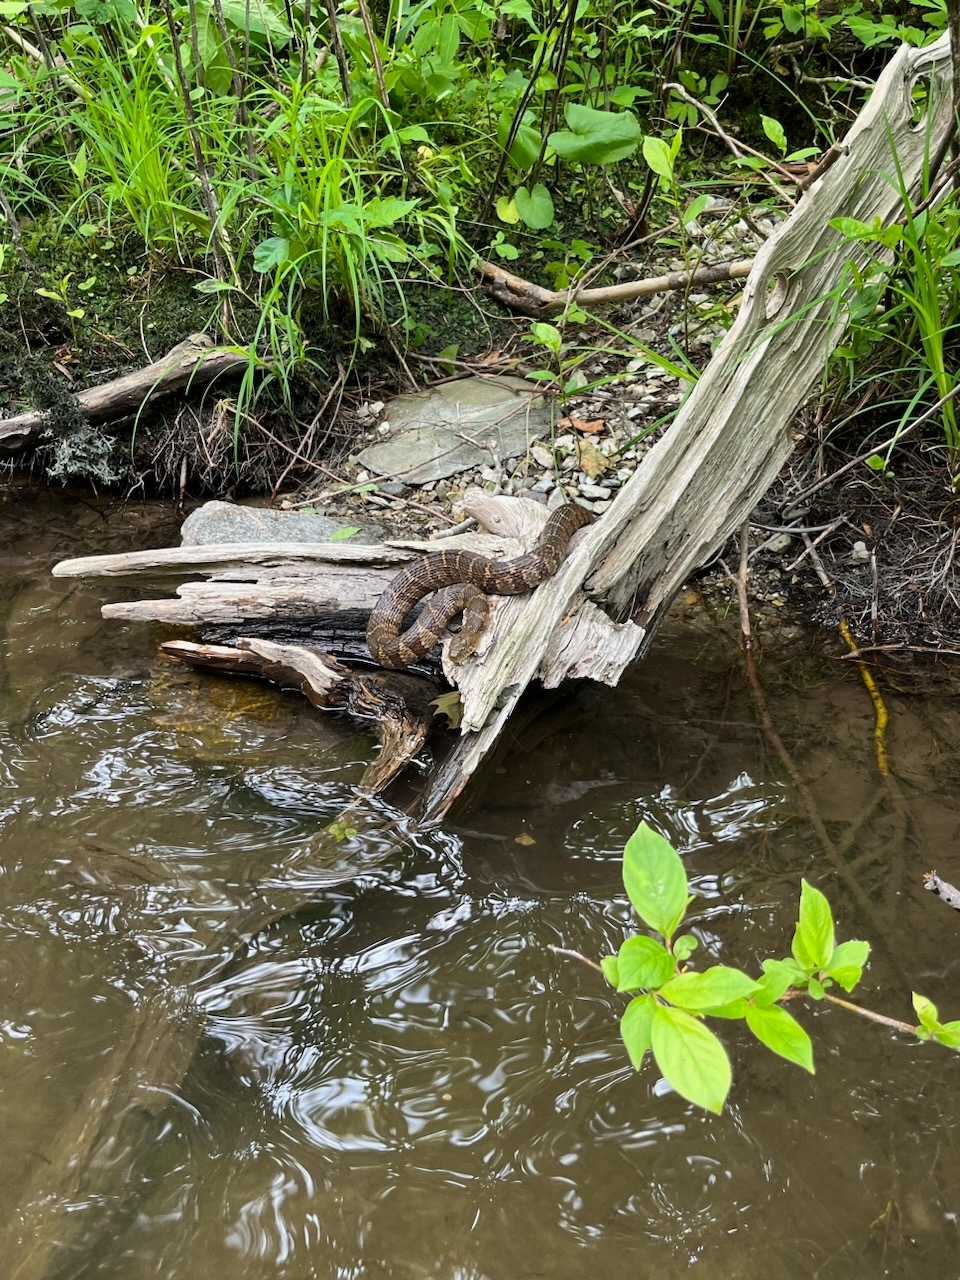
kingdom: Animalia
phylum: Chordata
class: Squamata
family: Colubridae
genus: Nerodia
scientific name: Nerodia sipedon
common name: Northern water snake
